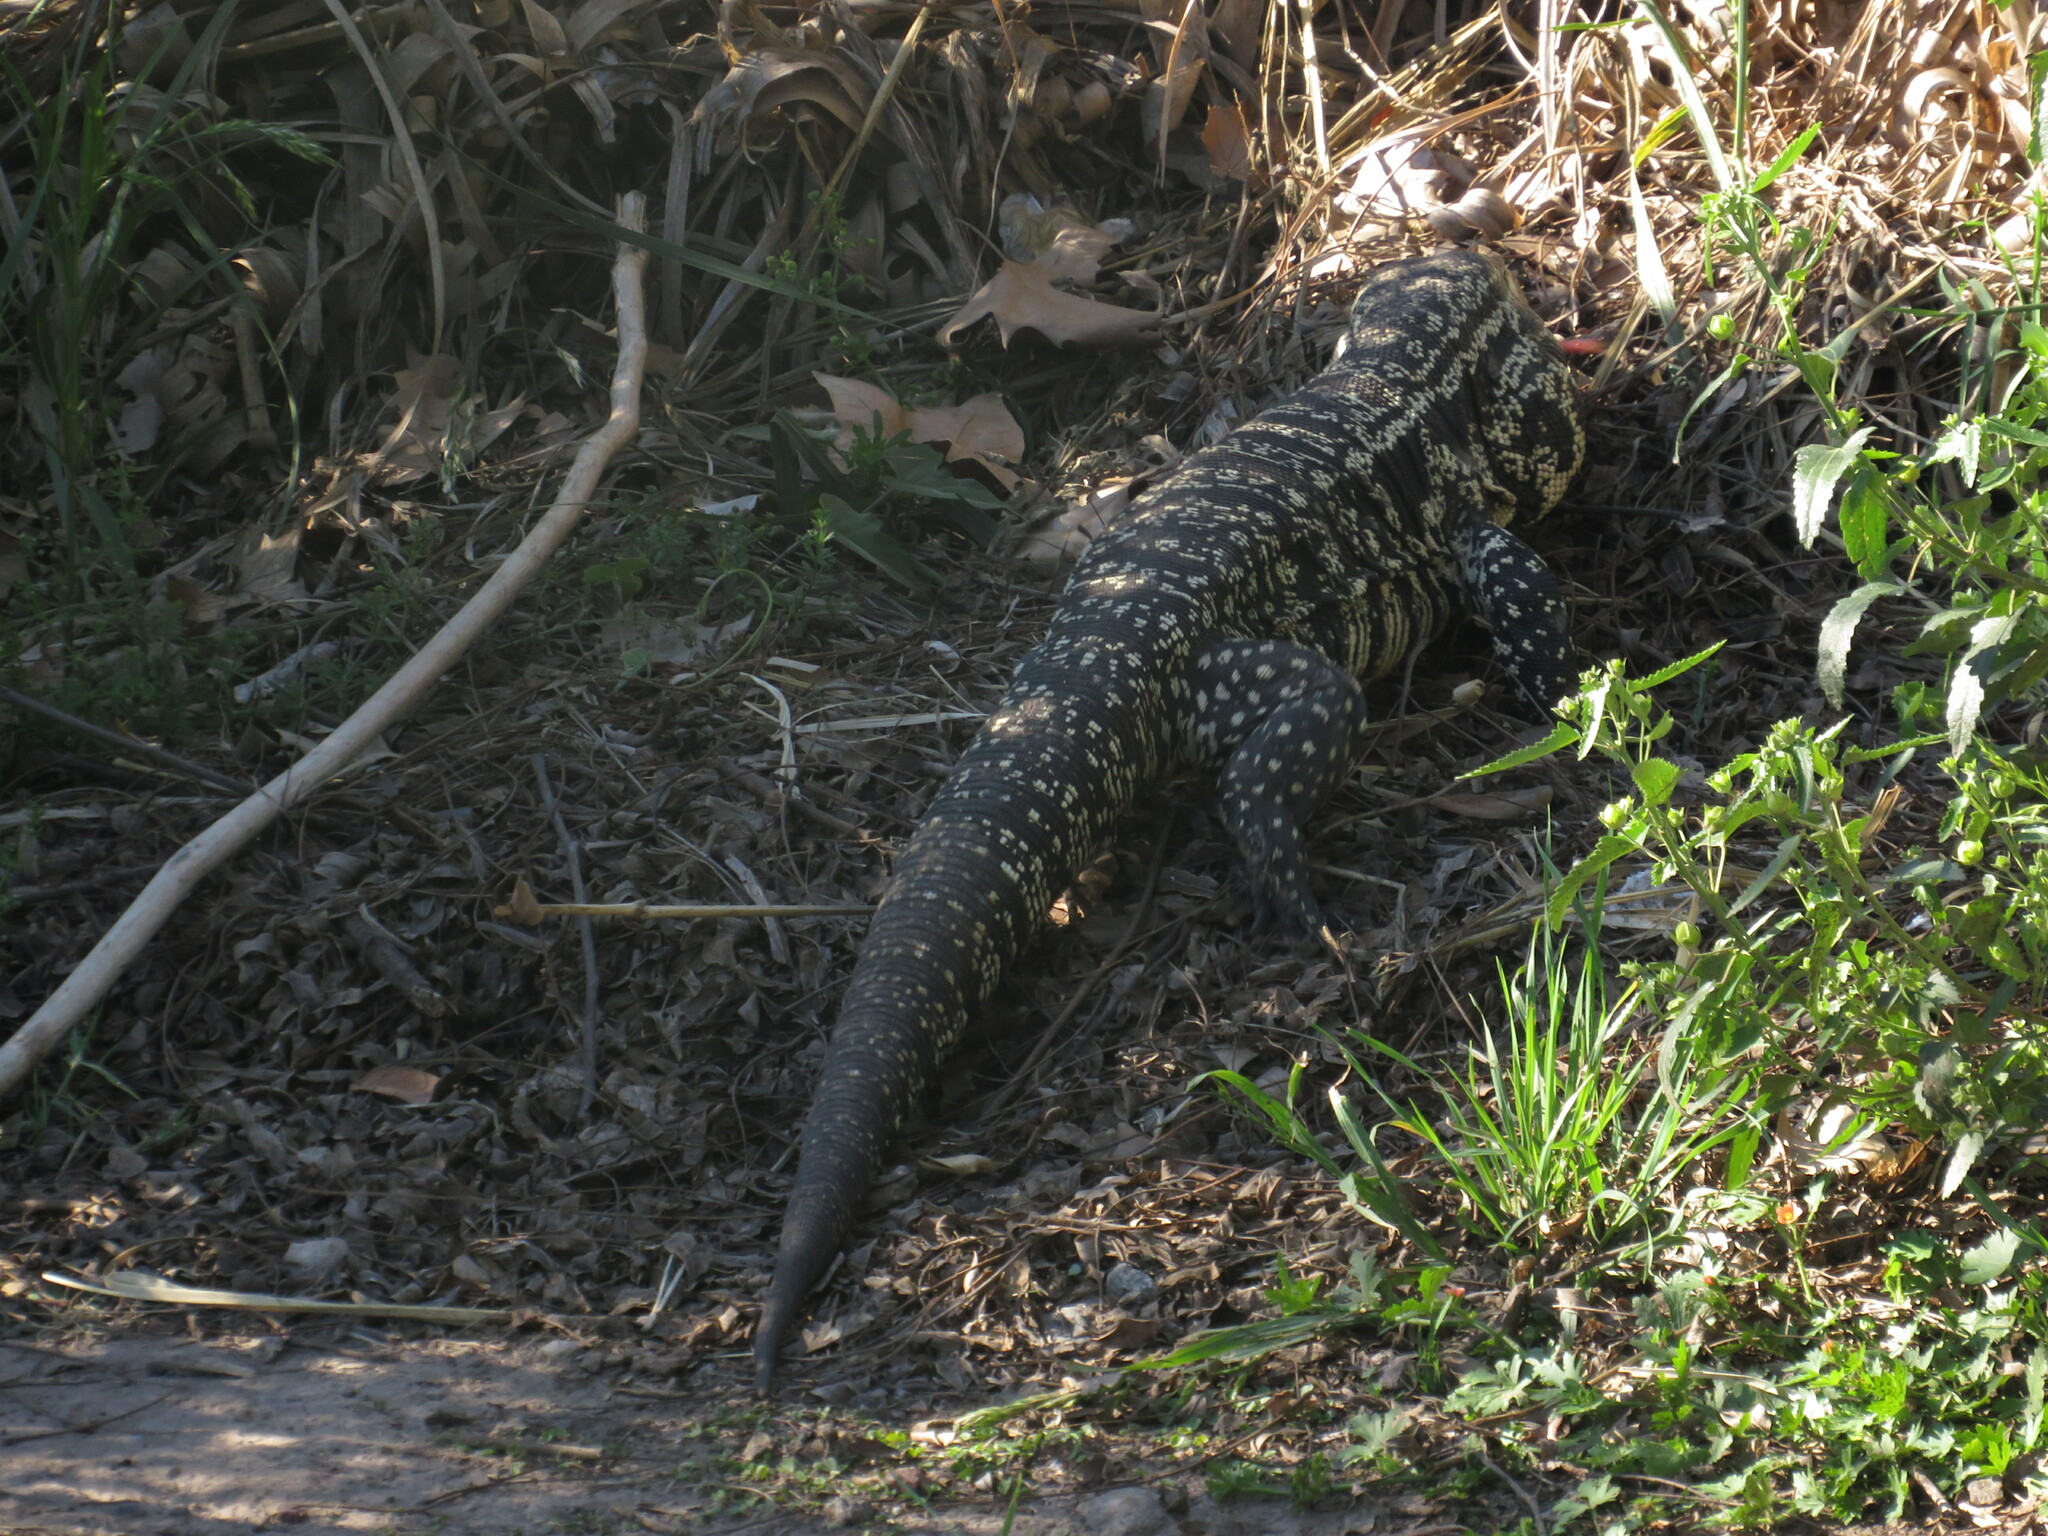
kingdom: Animalia
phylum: Chordata
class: Squamata
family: Teiidae
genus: Salvator
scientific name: Salvator merianae
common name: Argentine black and white tegu
